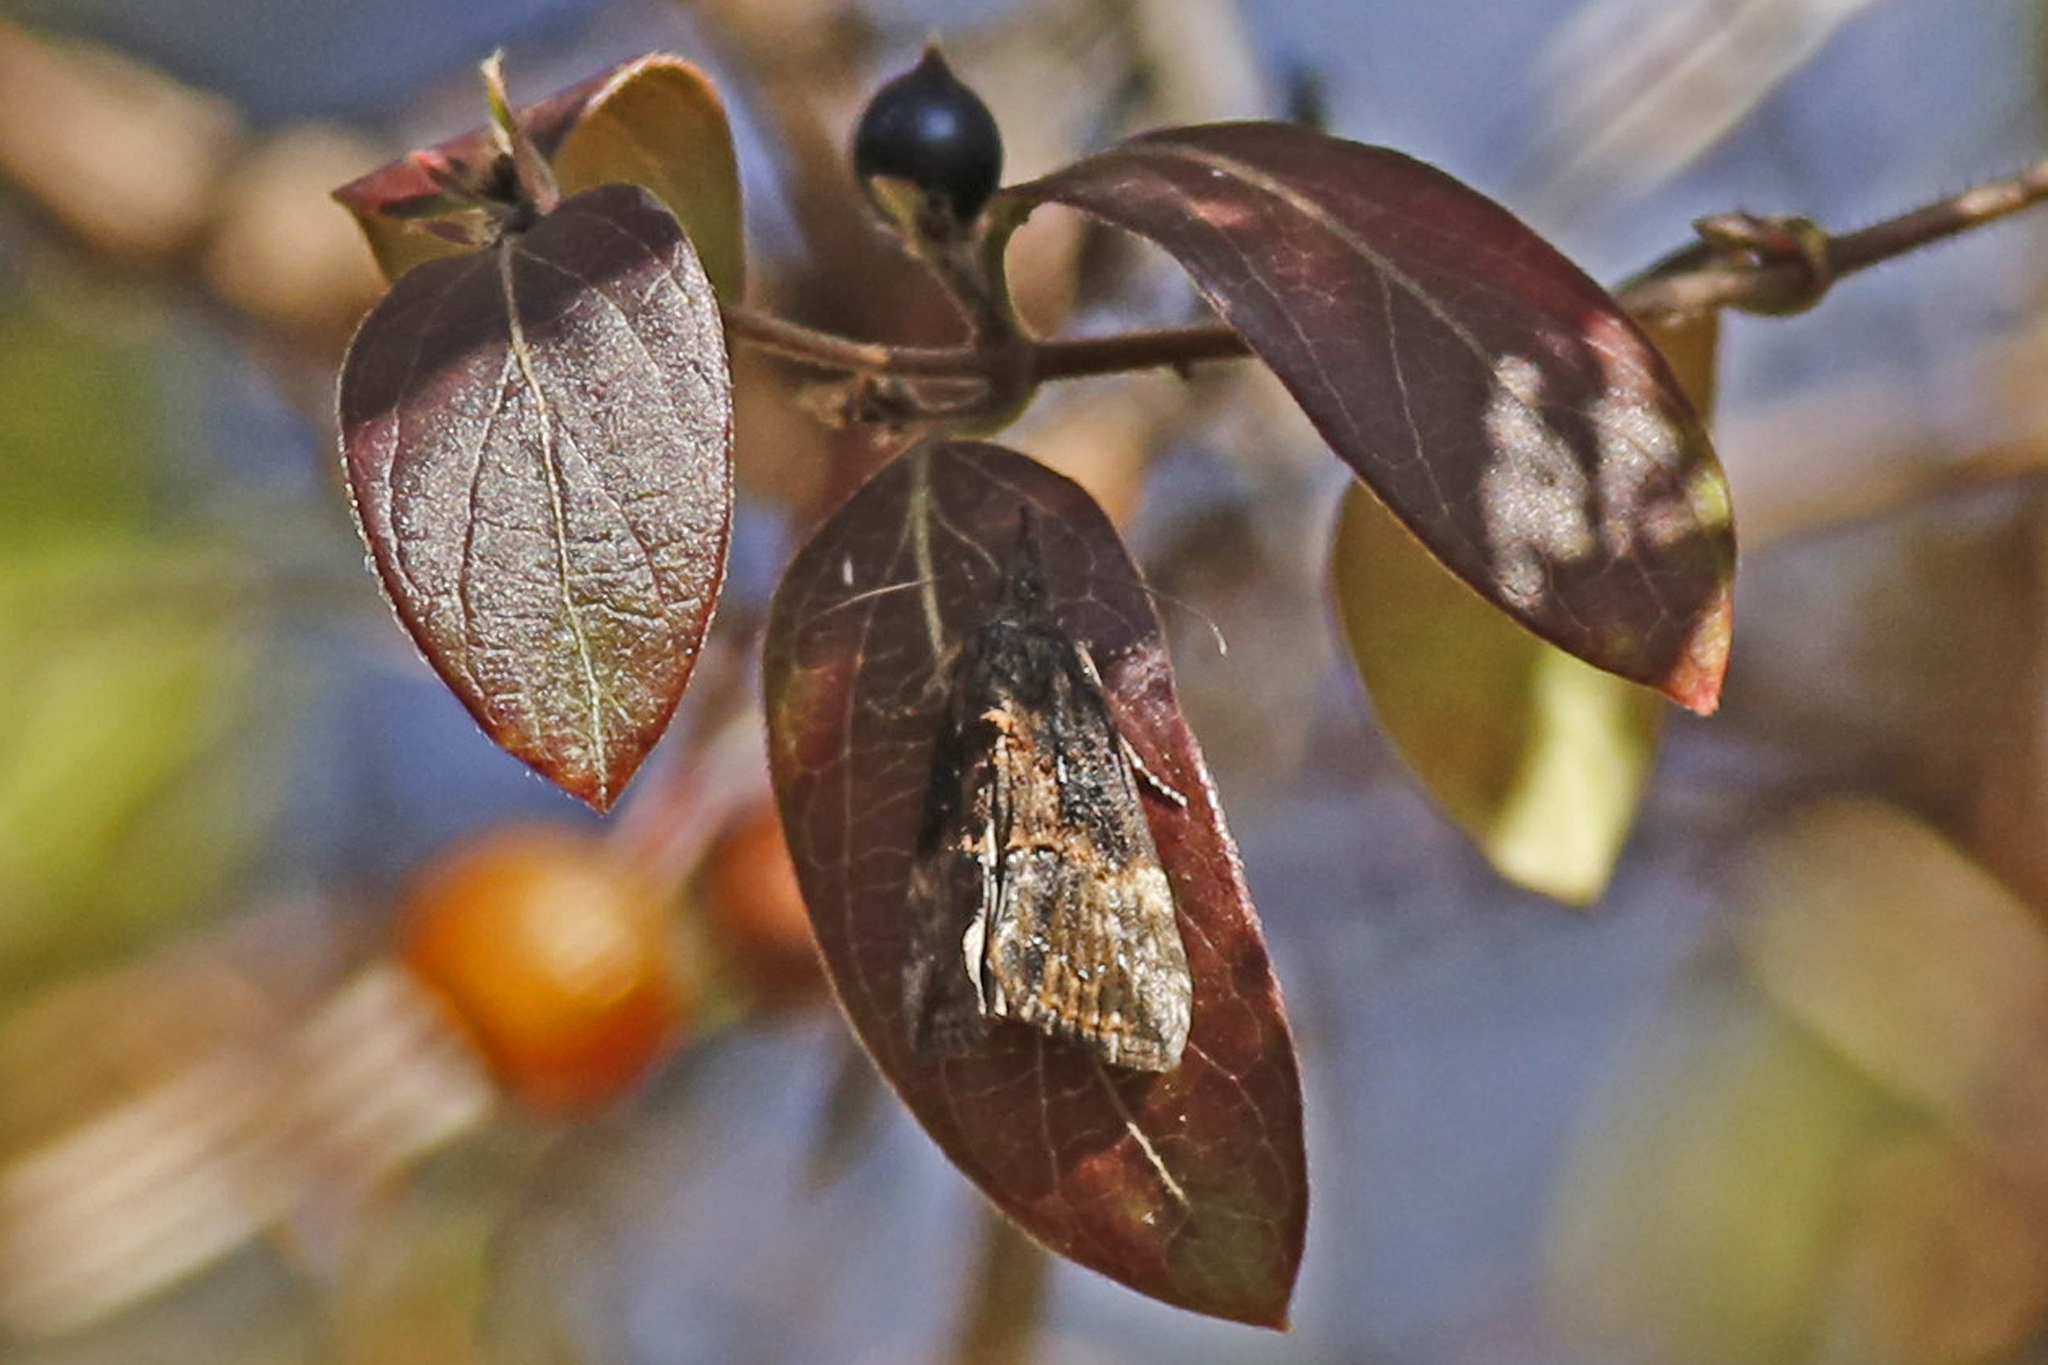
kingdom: Animalia
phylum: Arthropoda
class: Insecta
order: Lepidoptera
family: Erebidae
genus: Hypena
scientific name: Hypena scabra
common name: Green cloverworm
